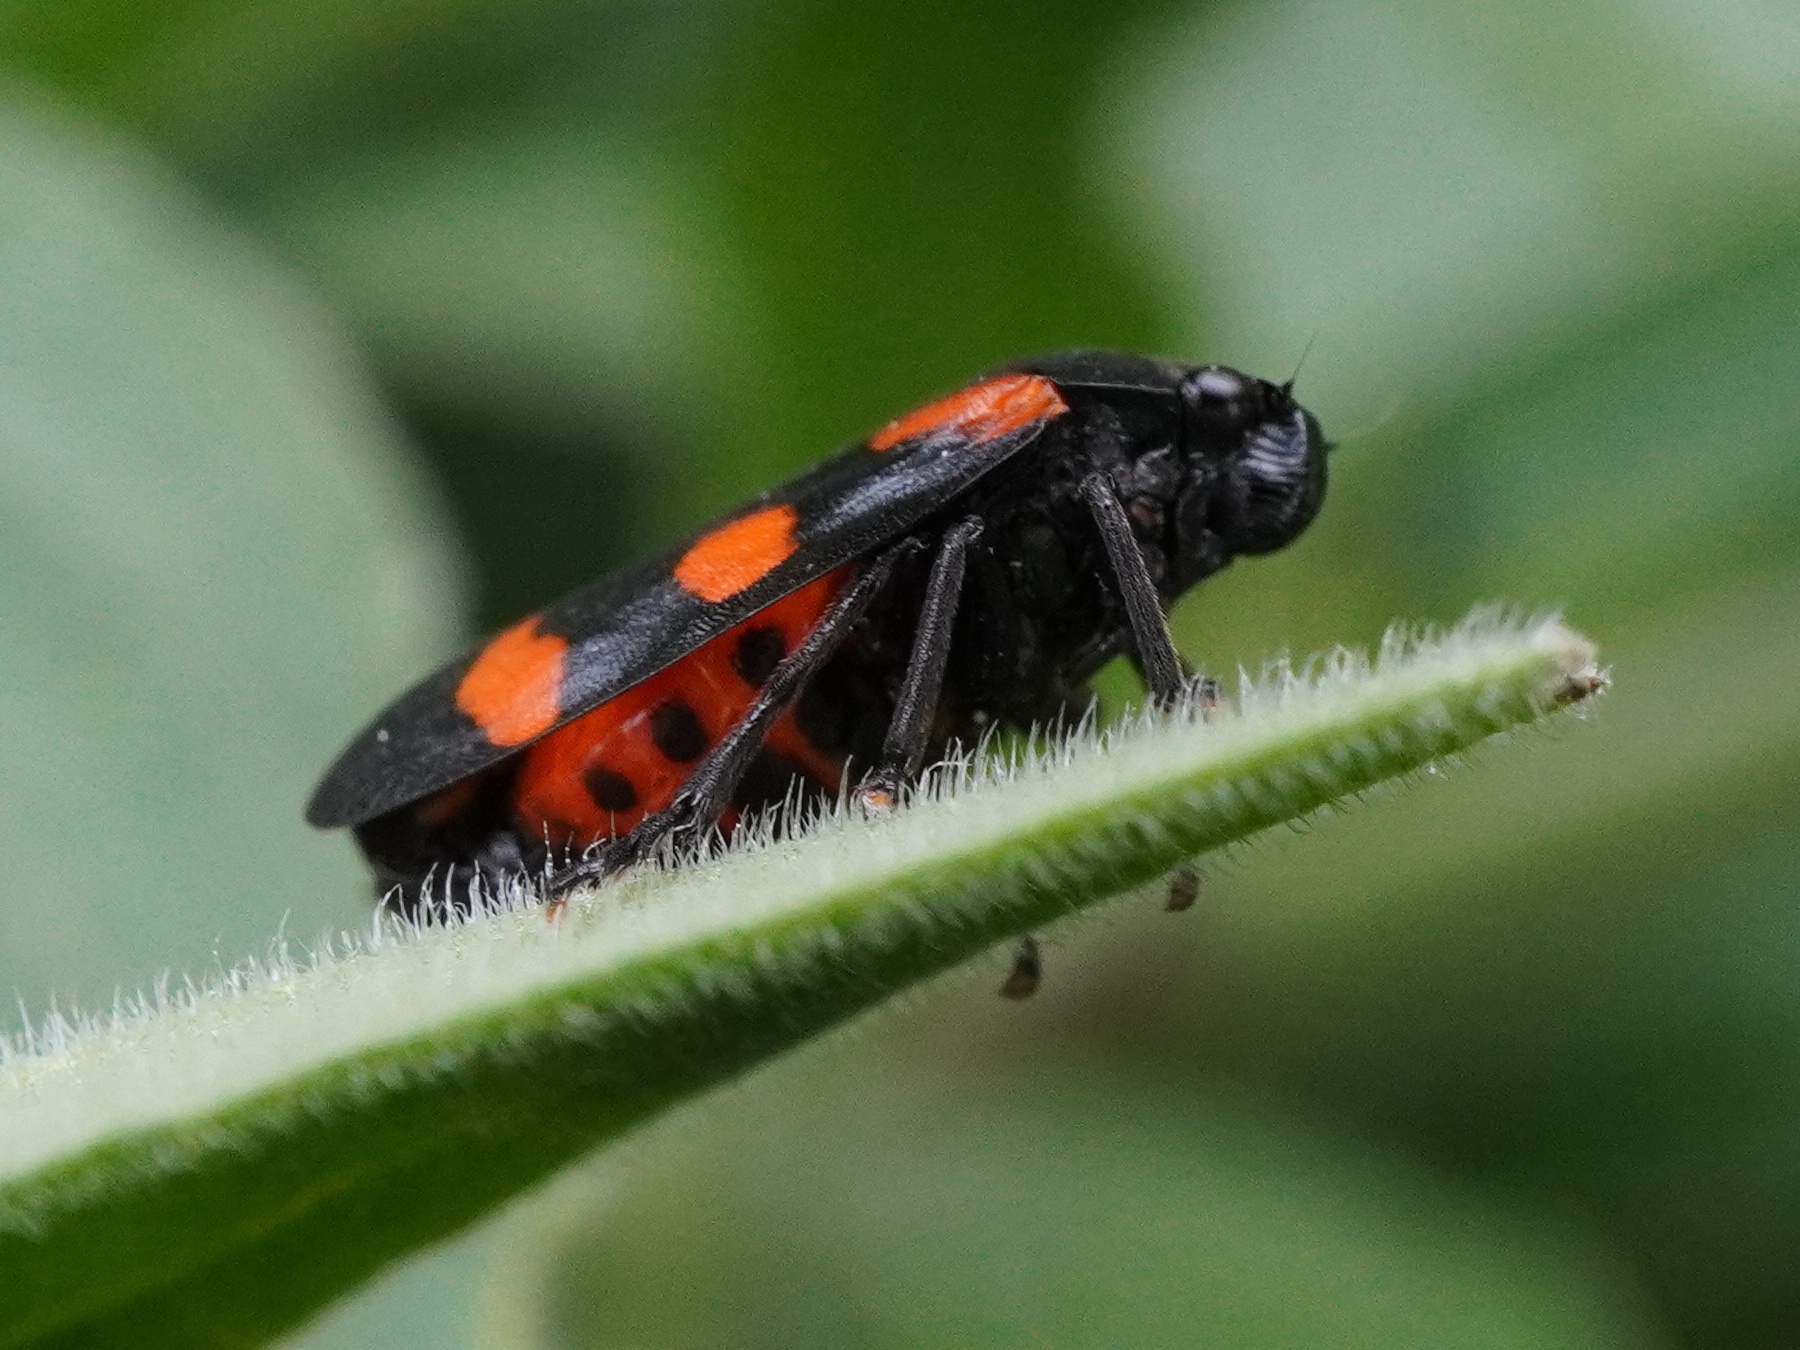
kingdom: Animalia
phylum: Arthropoda
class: Insecta
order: Hemiptera
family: Cercopidae
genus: Cercopis
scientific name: Cercopis sanguinolenta
